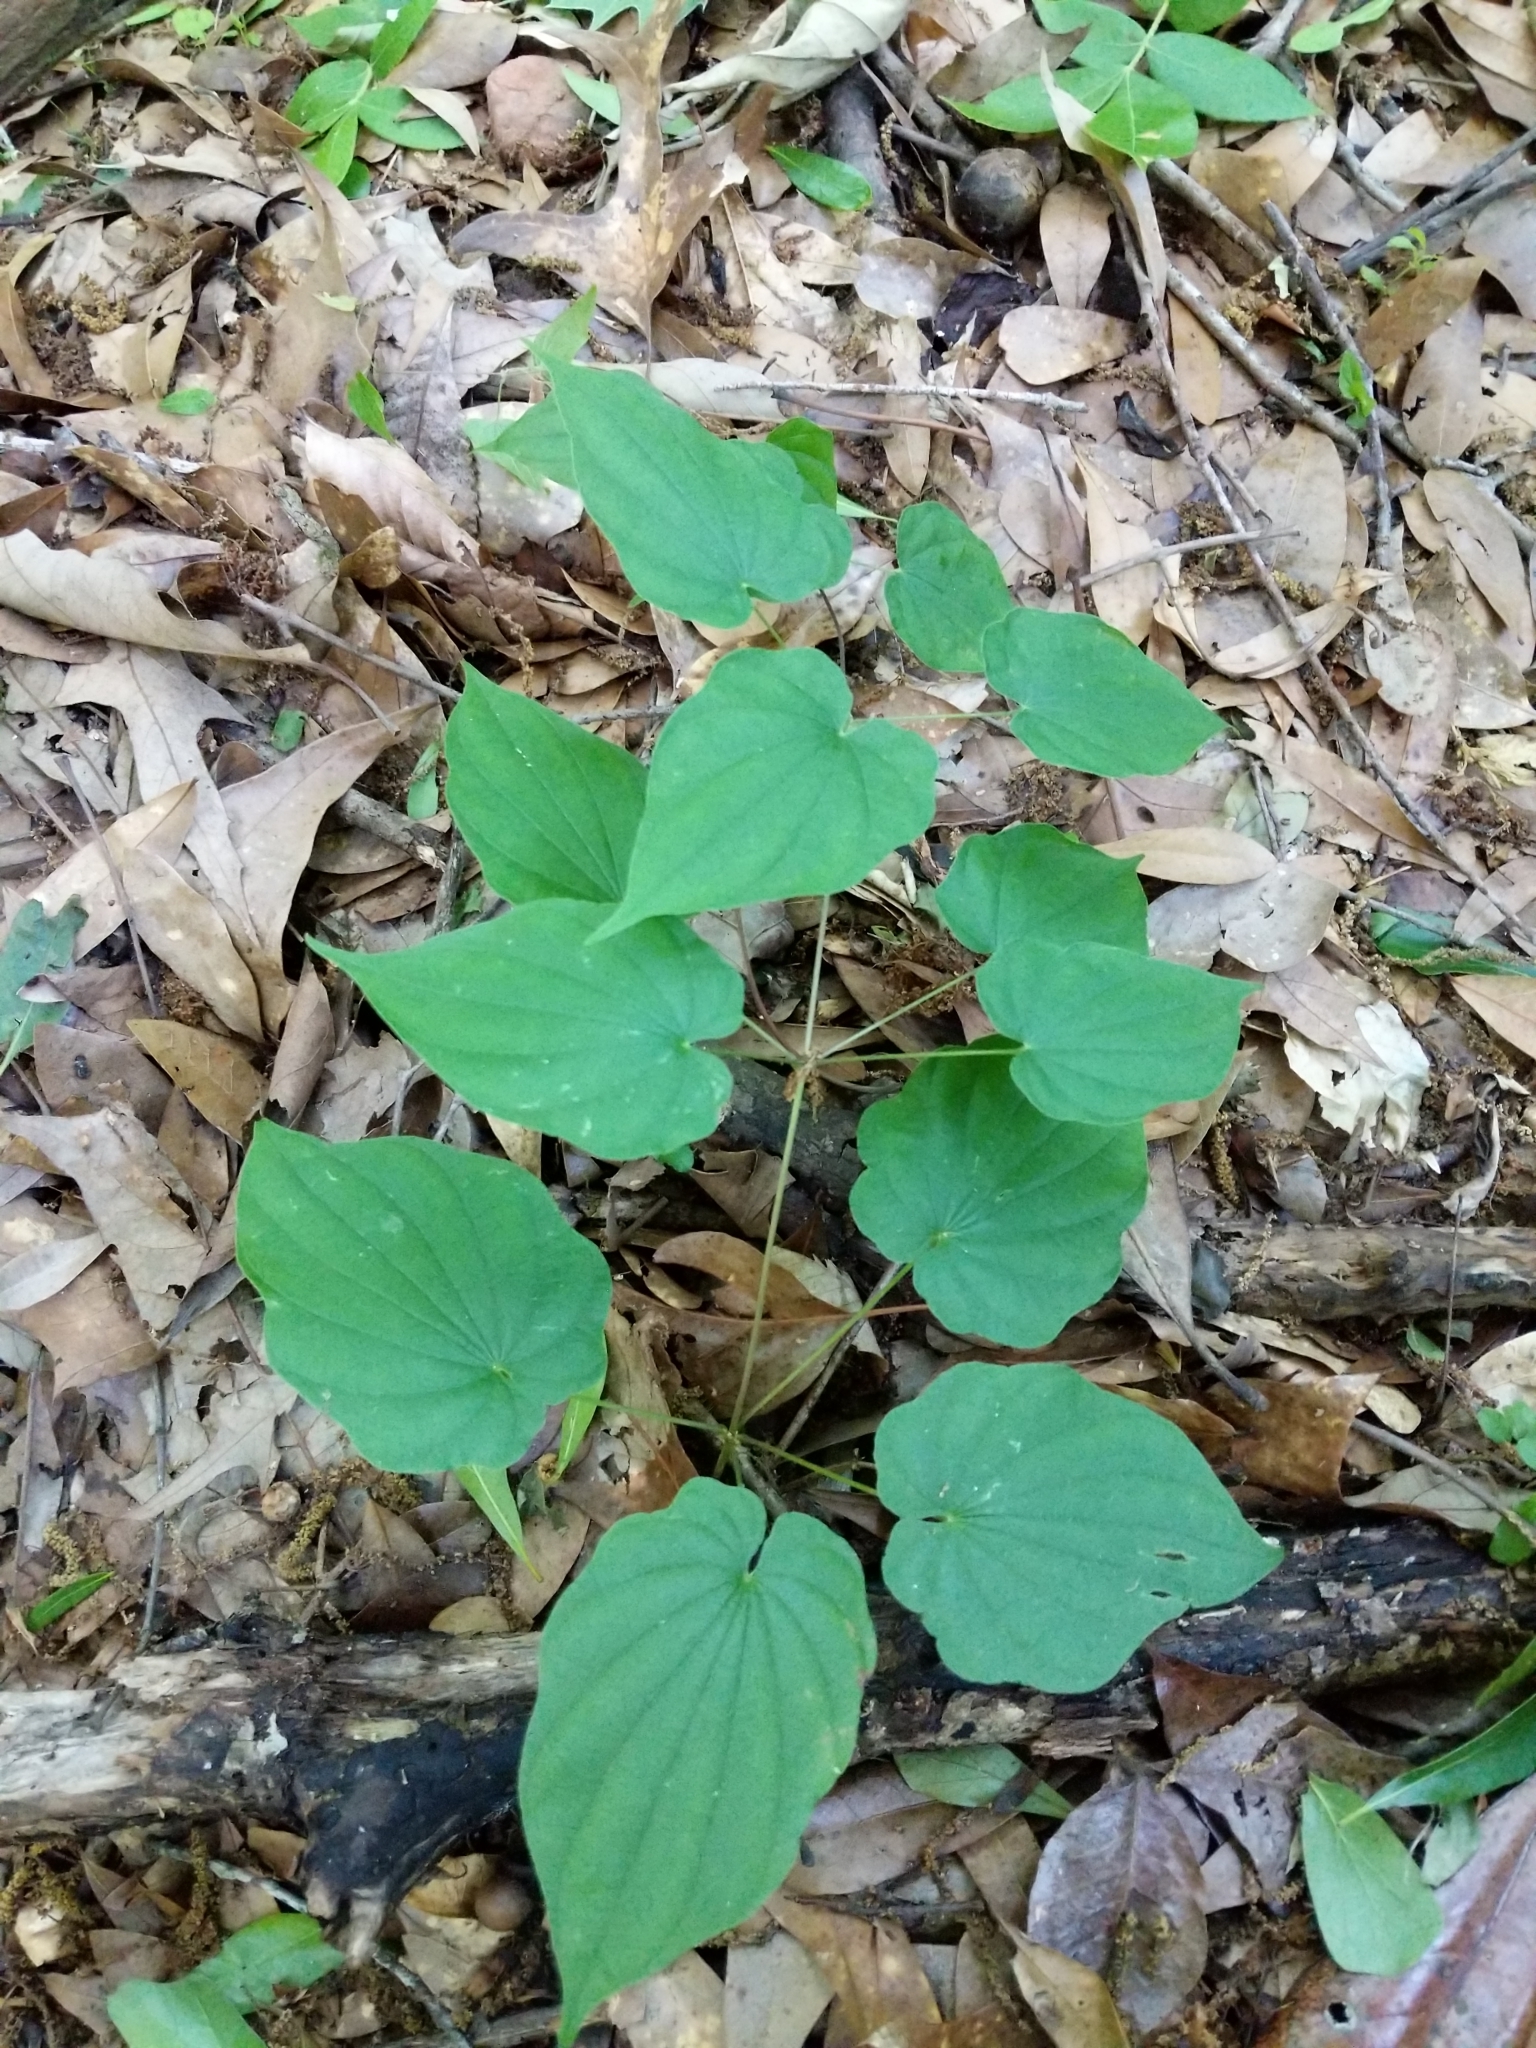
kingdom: Plantae
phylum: Tracheophyta
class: Liliopsida
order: Dioscoreales
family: Dioscoreaceae
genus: Dioscorea
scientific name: Dioscorea villosa
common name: Wild yam
